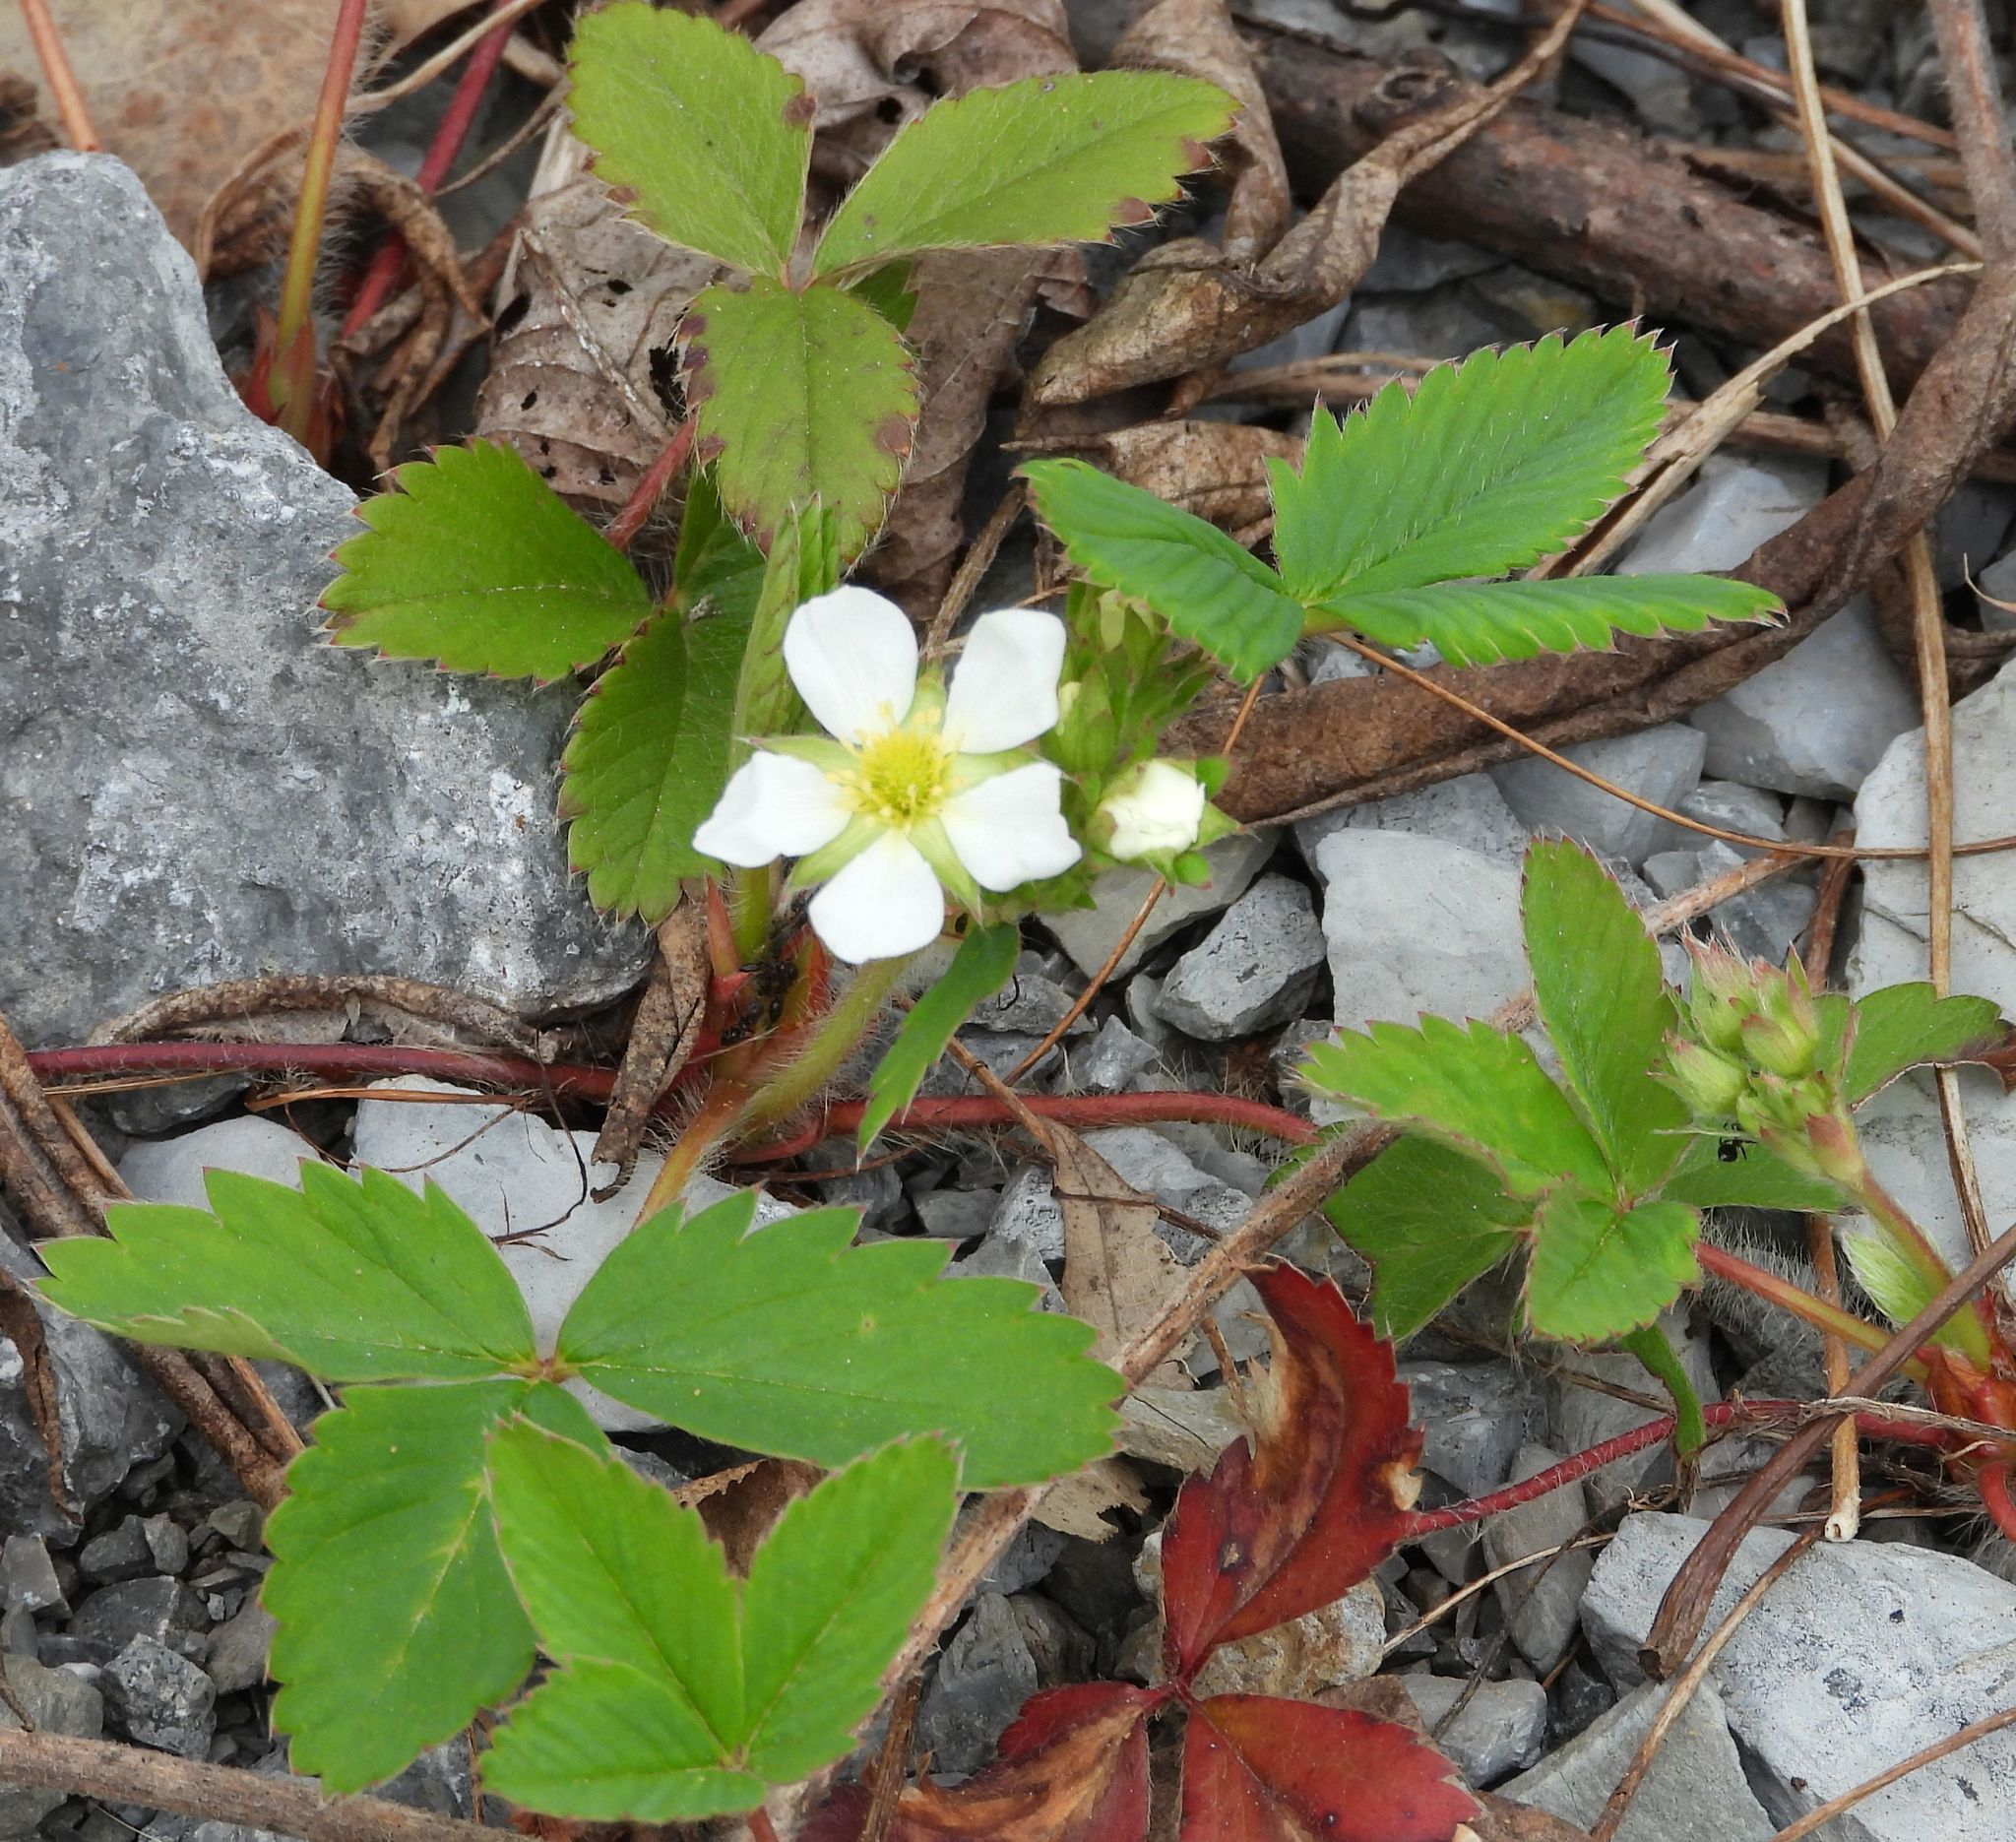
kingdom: Plantae
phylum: Tracheophyta
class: Magnoliopsida
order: Rosales
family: Rosaceae
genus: Fragaria
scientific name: Fragaria virginiana
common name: Thickleaved wild strawberry
